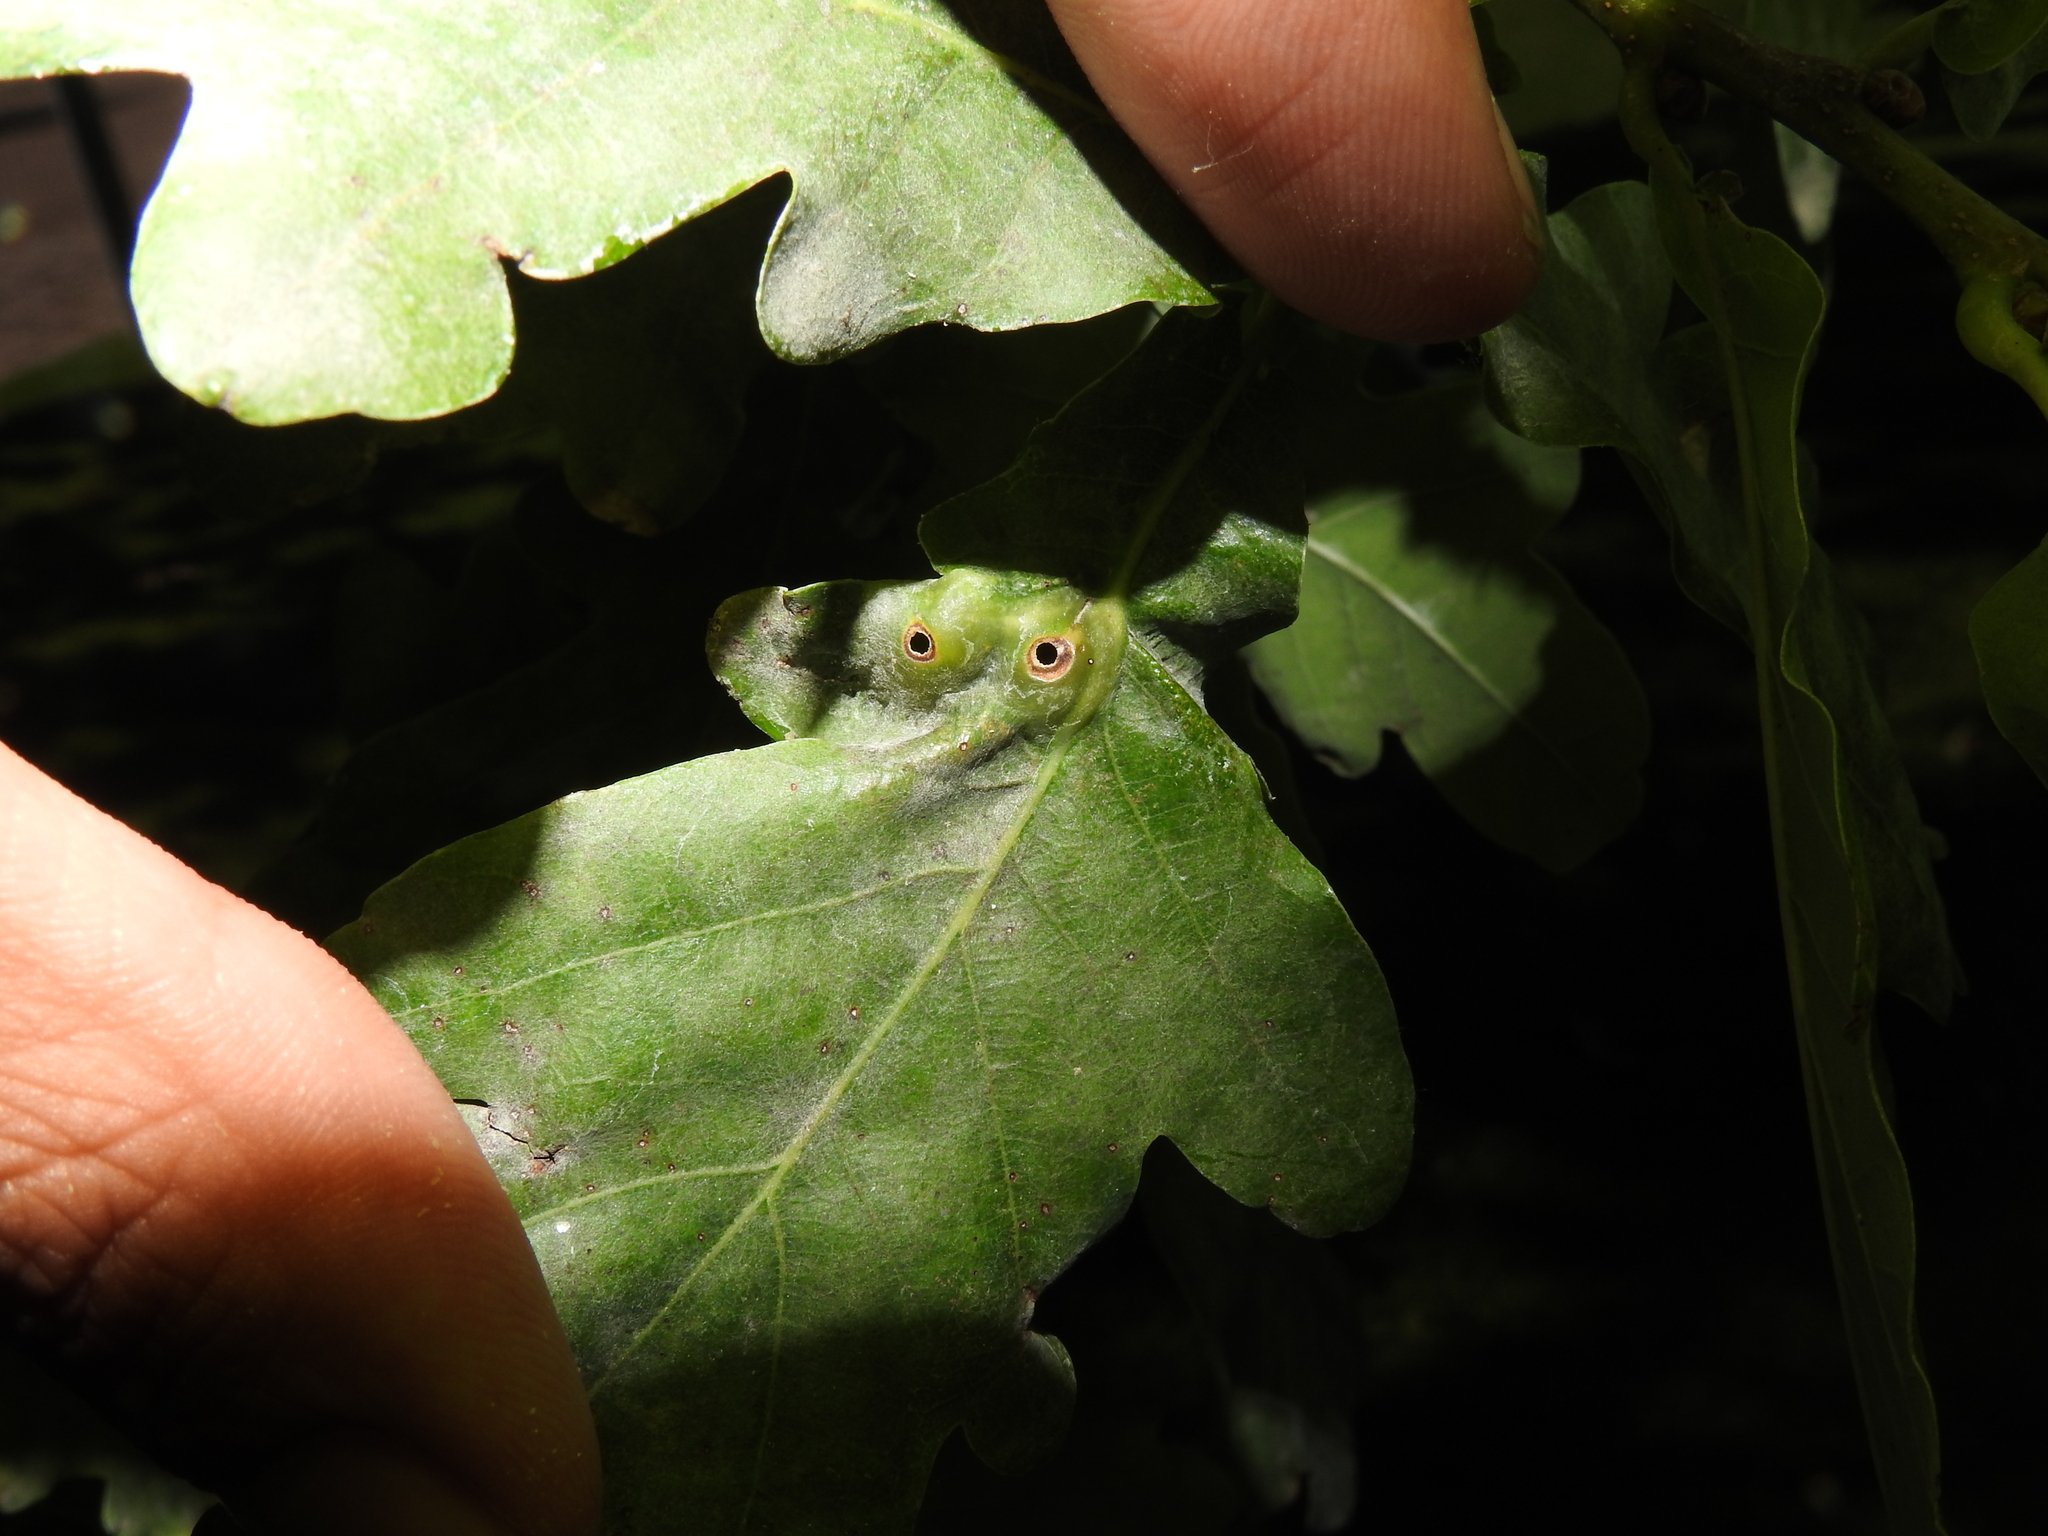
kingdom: Animalia
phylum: Arthropoda
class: Insecta
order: Hymenoptera
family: Cynipidae
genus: Andricus
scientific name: Andricus curvator
